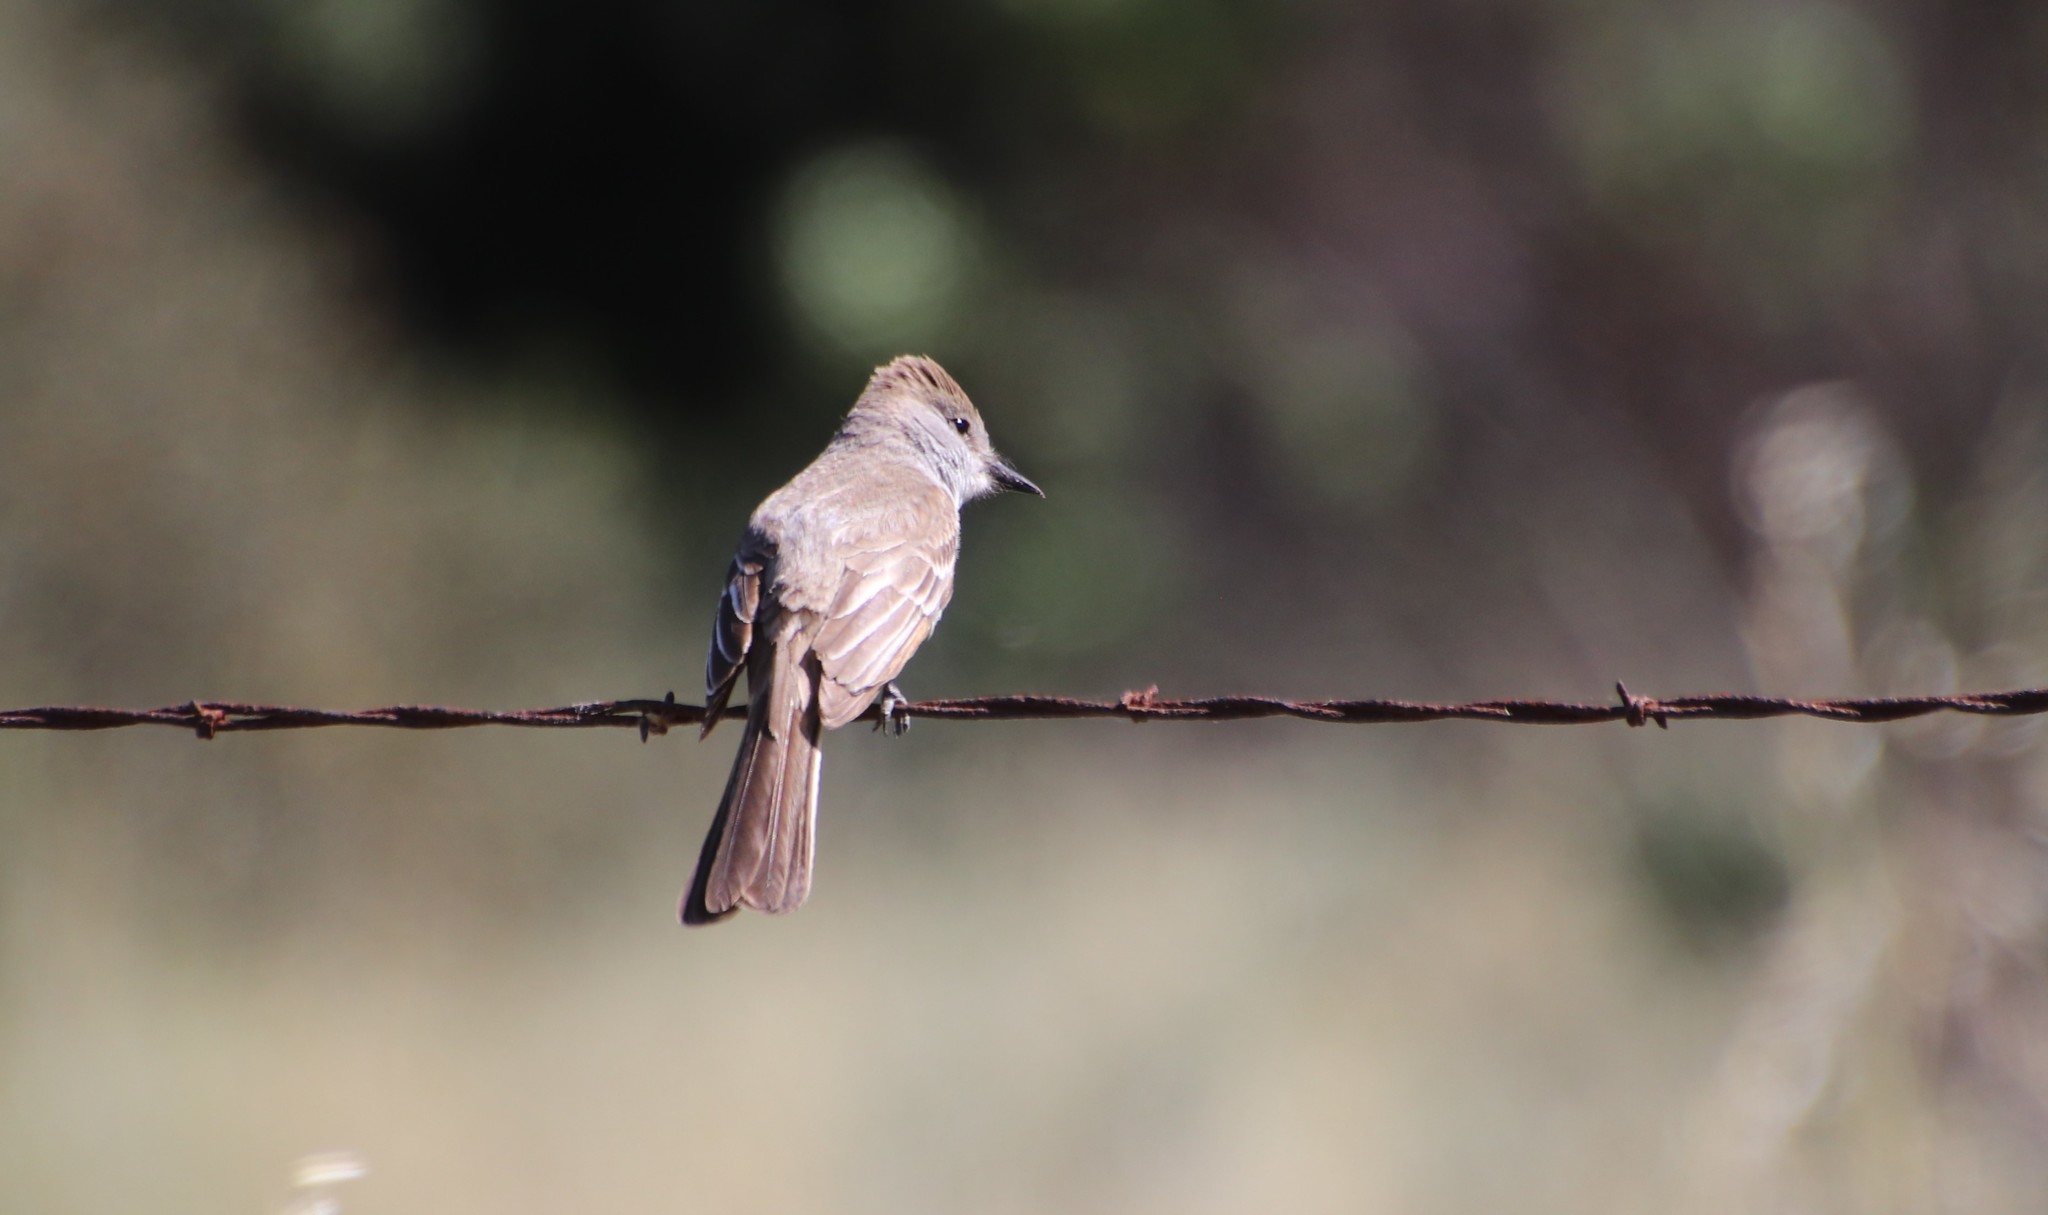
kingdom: Animalia
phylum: Chordata
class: Aves
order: Passeriformes
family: Tyrannidae
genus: Myiarchus
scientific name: Myiarchus cinerascens
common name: Ash-throated flycatcher
